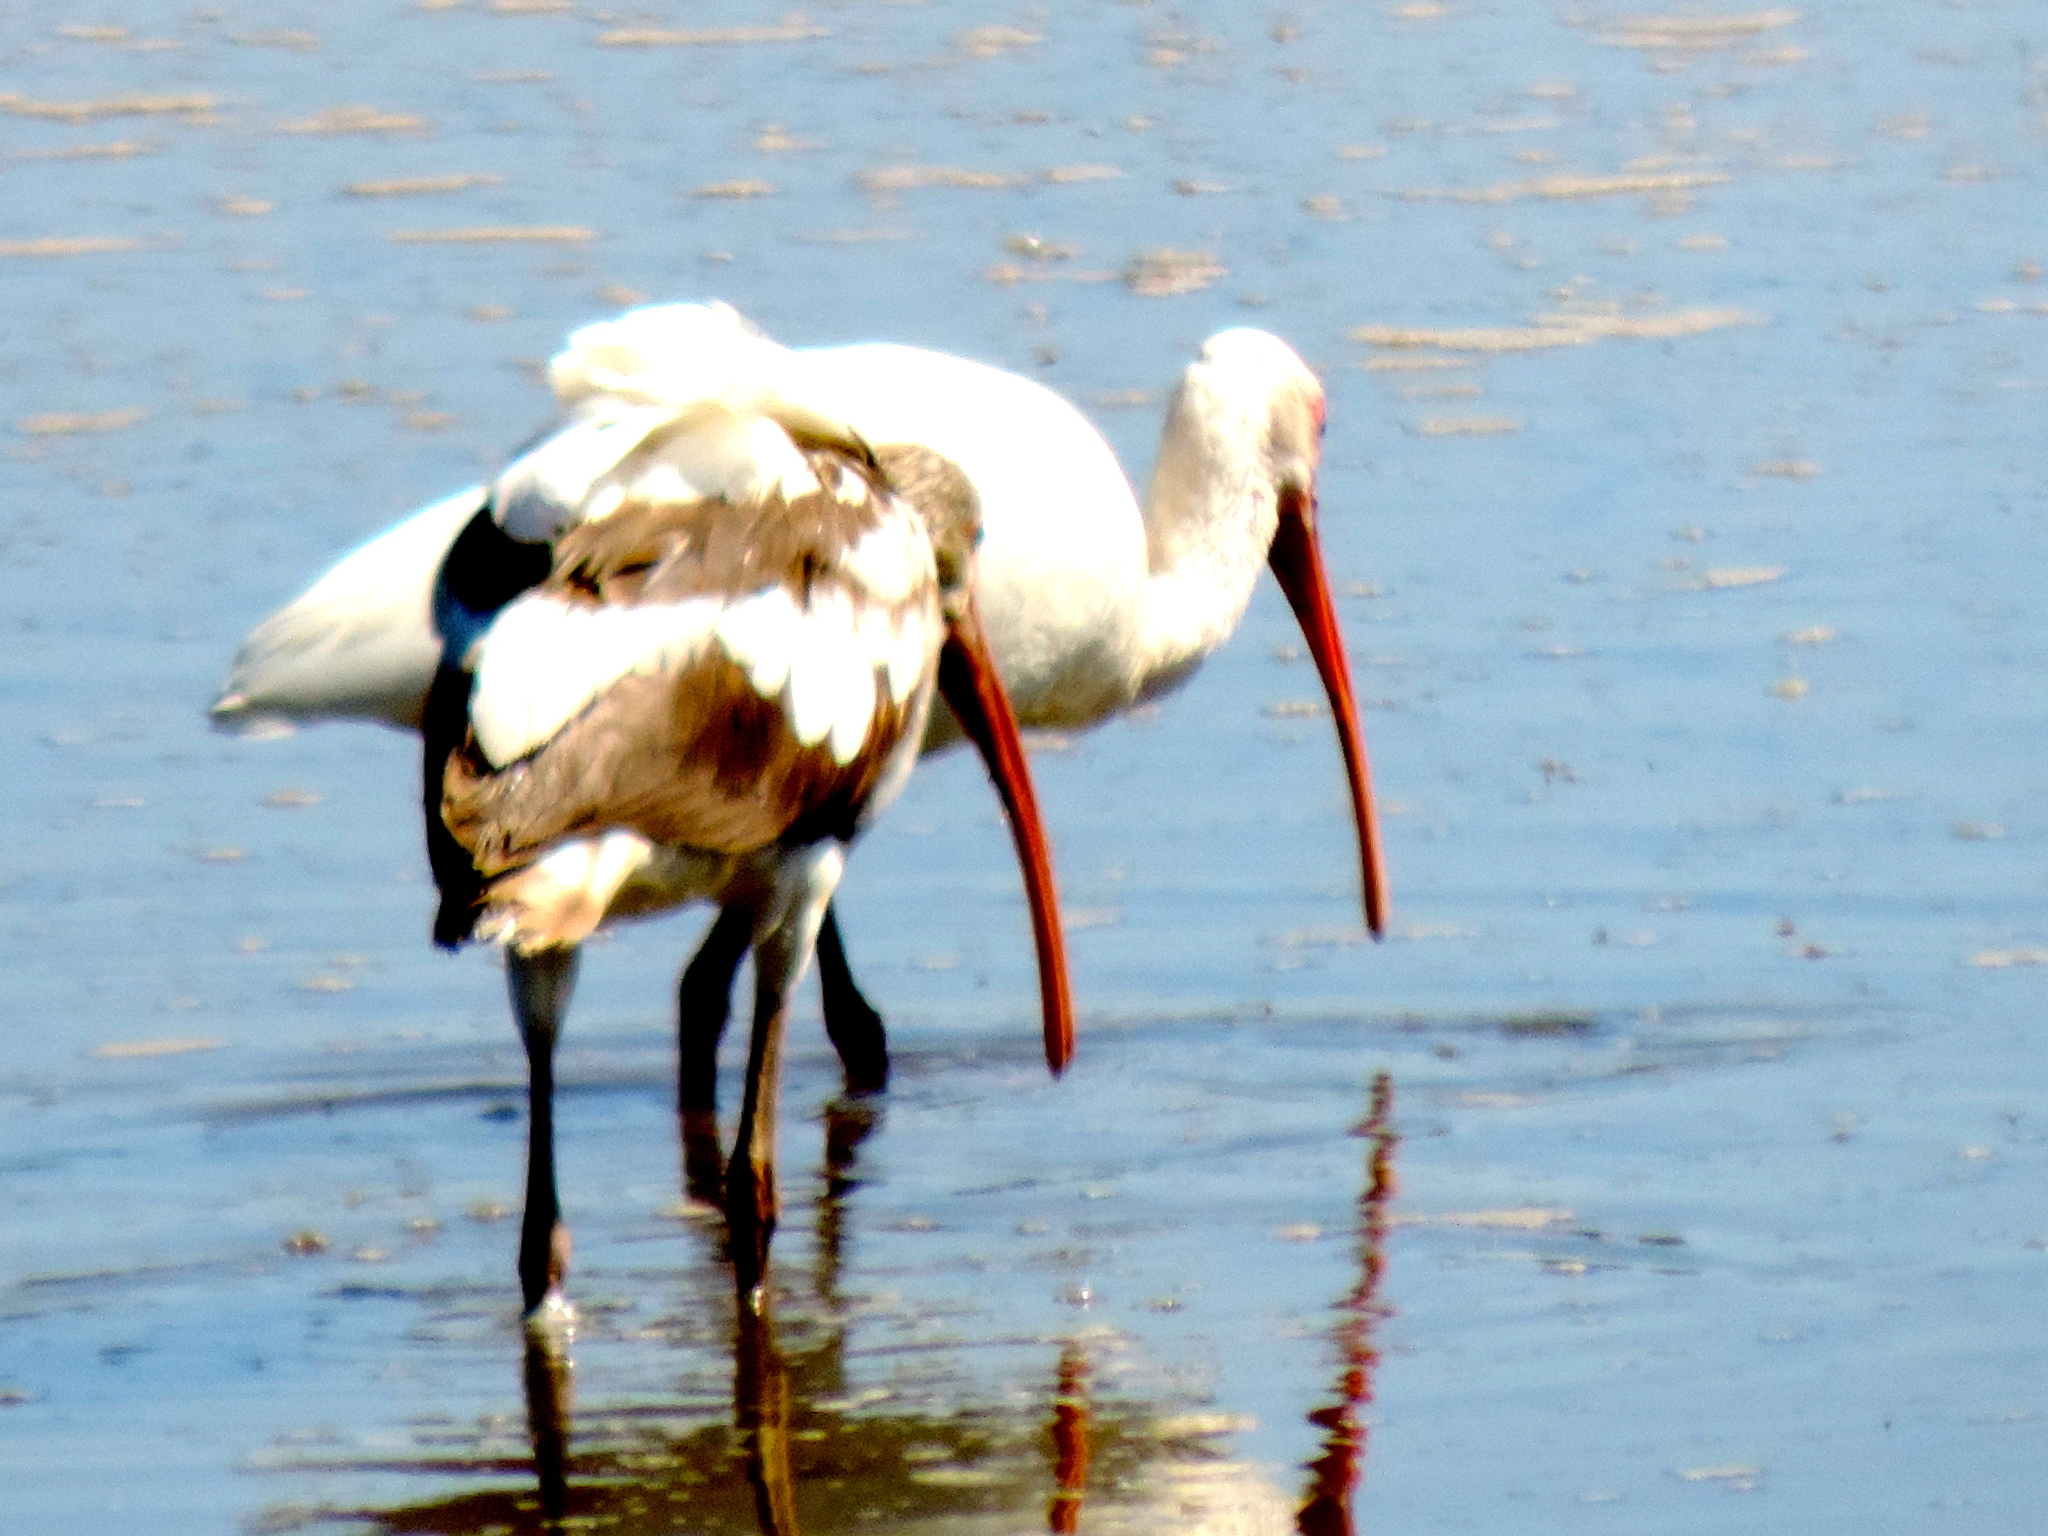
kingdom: Animalia
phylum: Chordata
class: Aves
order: Pelecaniformes
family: Threskiornithidae
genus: Eudocimus
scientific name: Eudocimus albus
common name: White ibis
